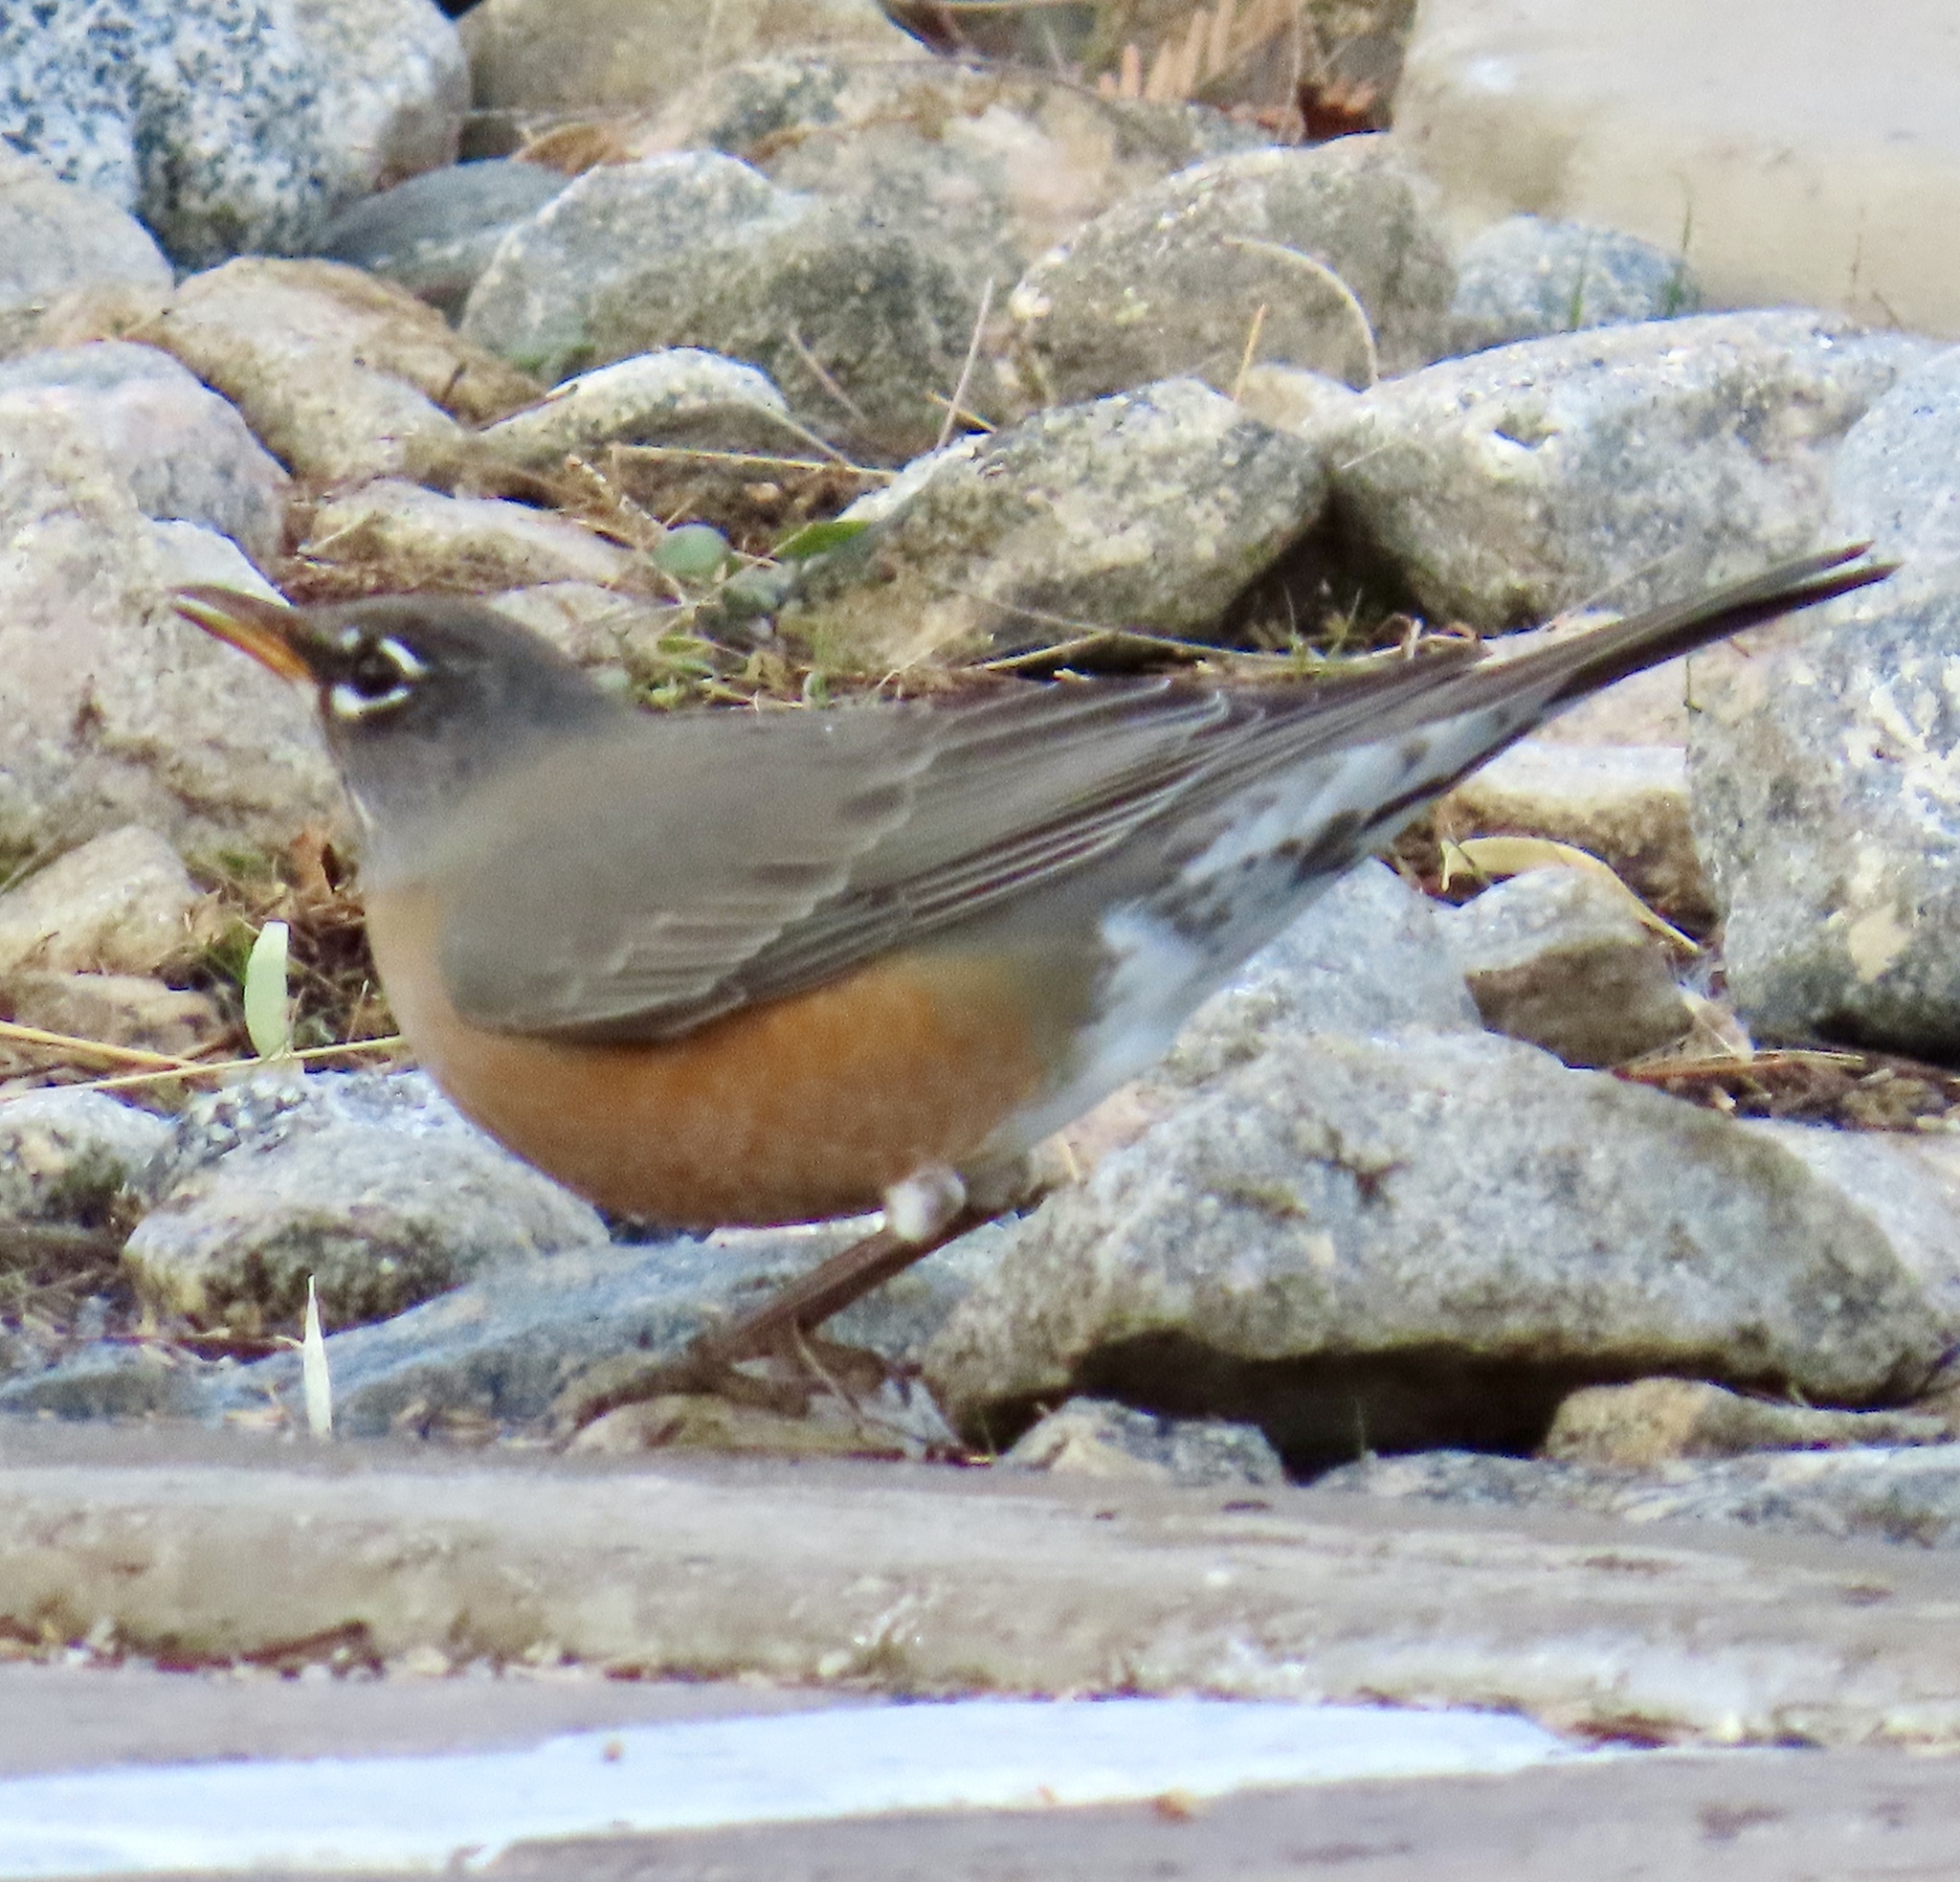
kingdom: Animalia
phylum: Chordata
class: Aves
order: Passeriformes
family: Turdidae
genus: Turdus
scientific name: Turdus migratorius
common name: American robin
